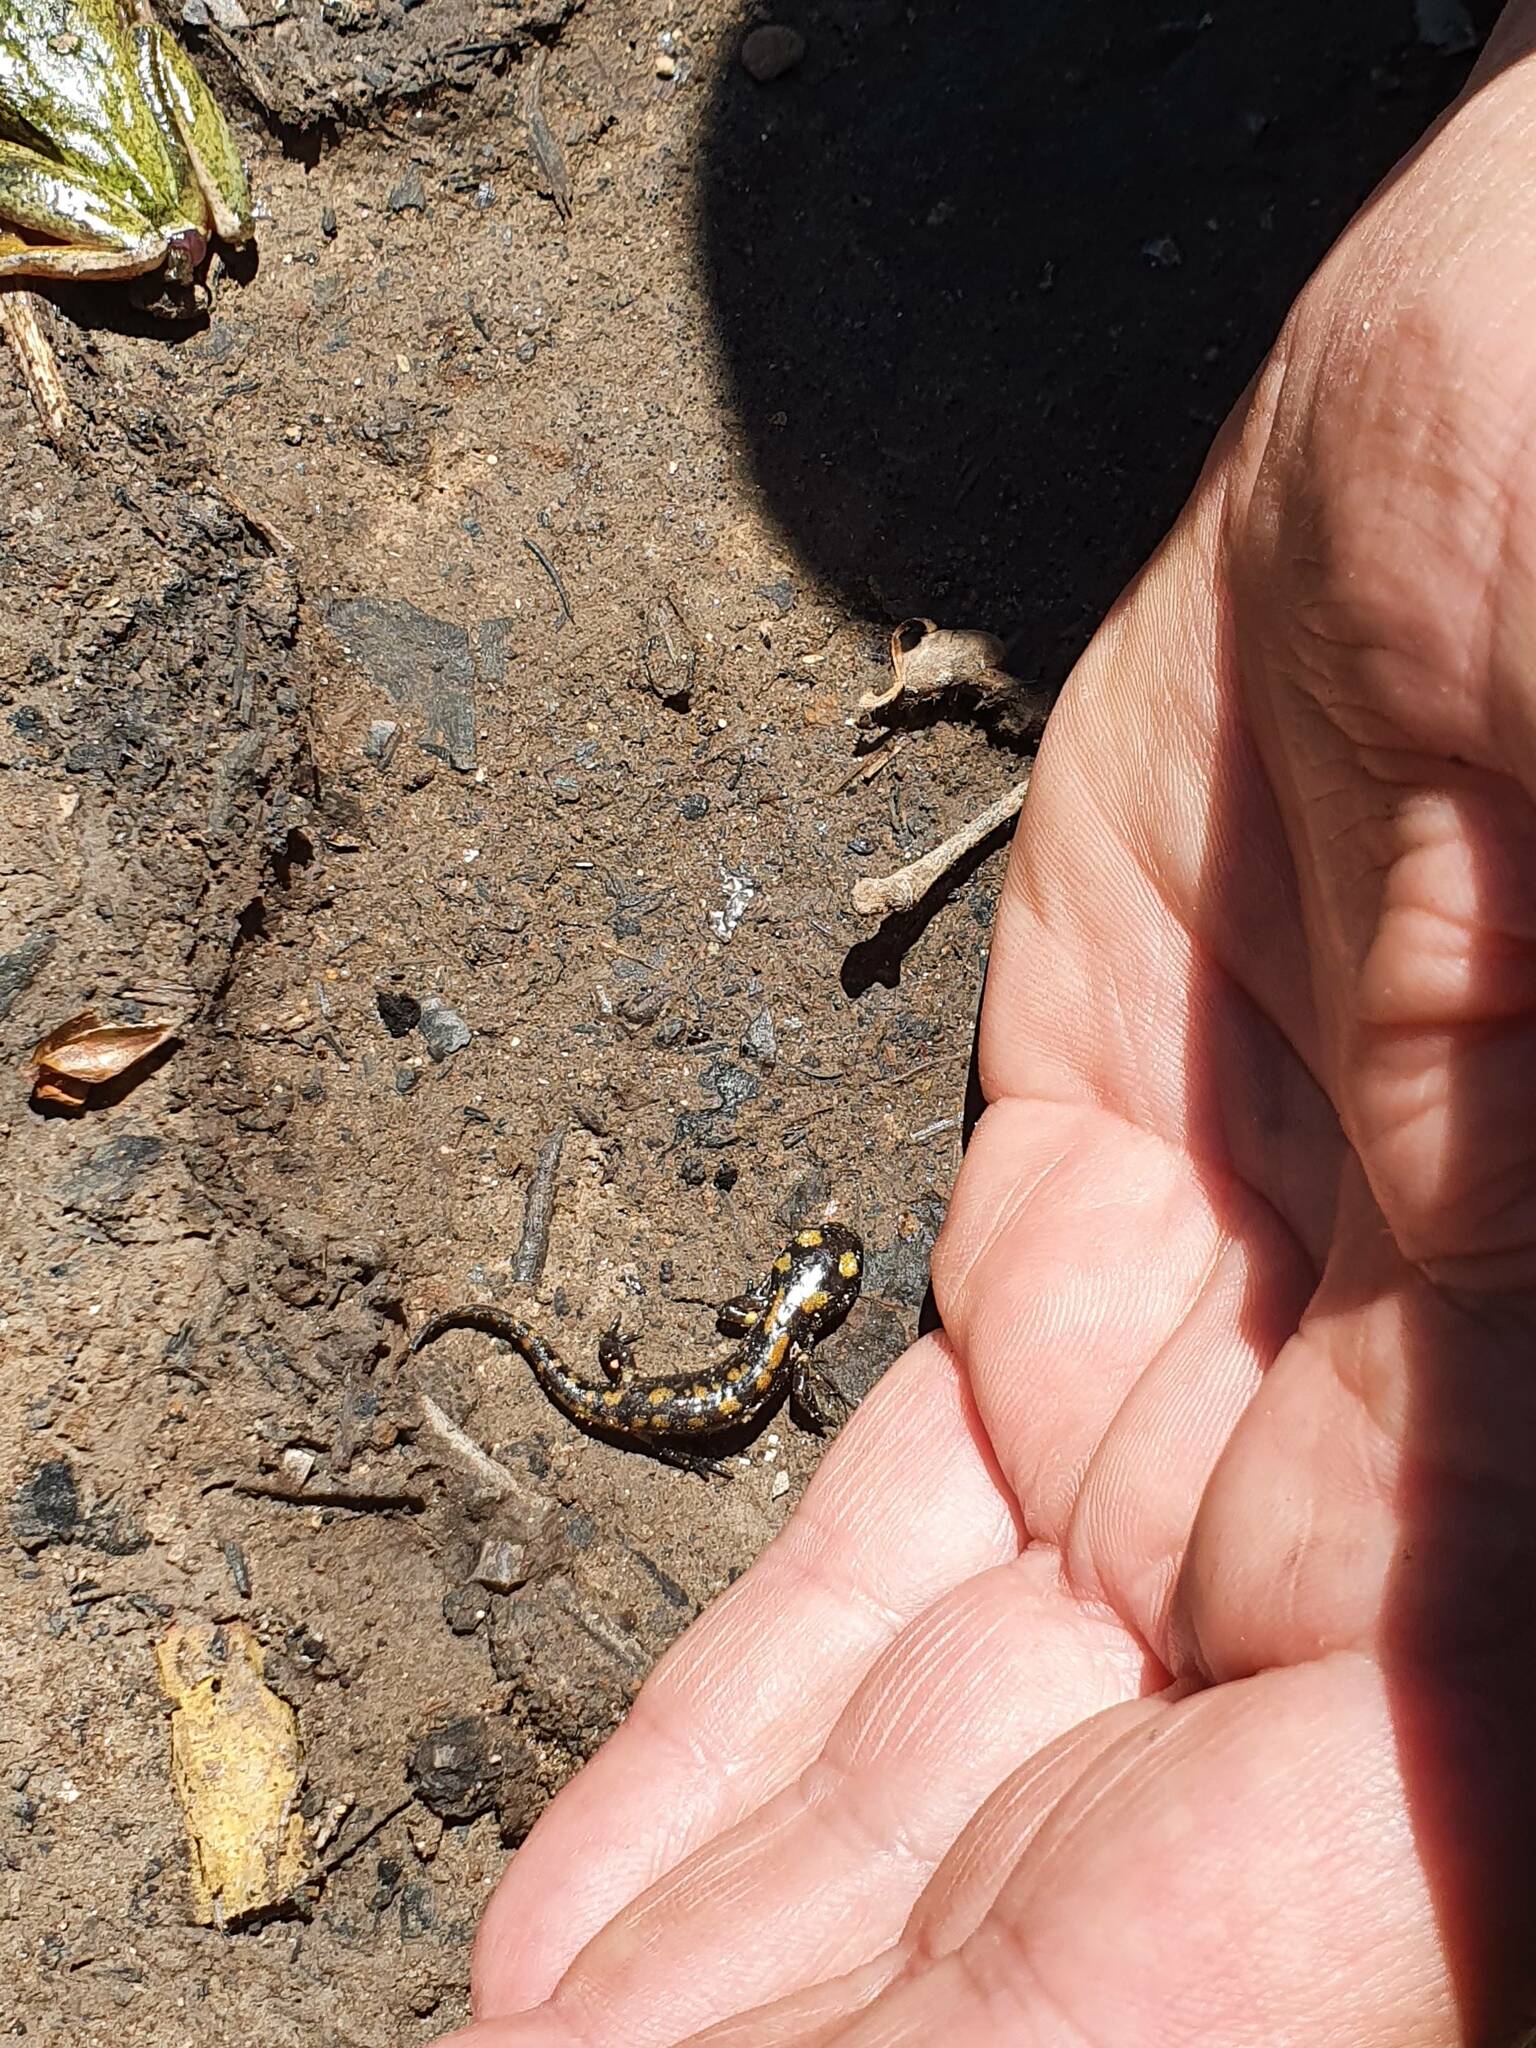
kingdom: Animalia
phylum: Chordata
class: Amphibia
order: Caudata
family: Salamandridae
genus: Salamandra
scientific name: Salamandra algira
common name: North african fire salamander
